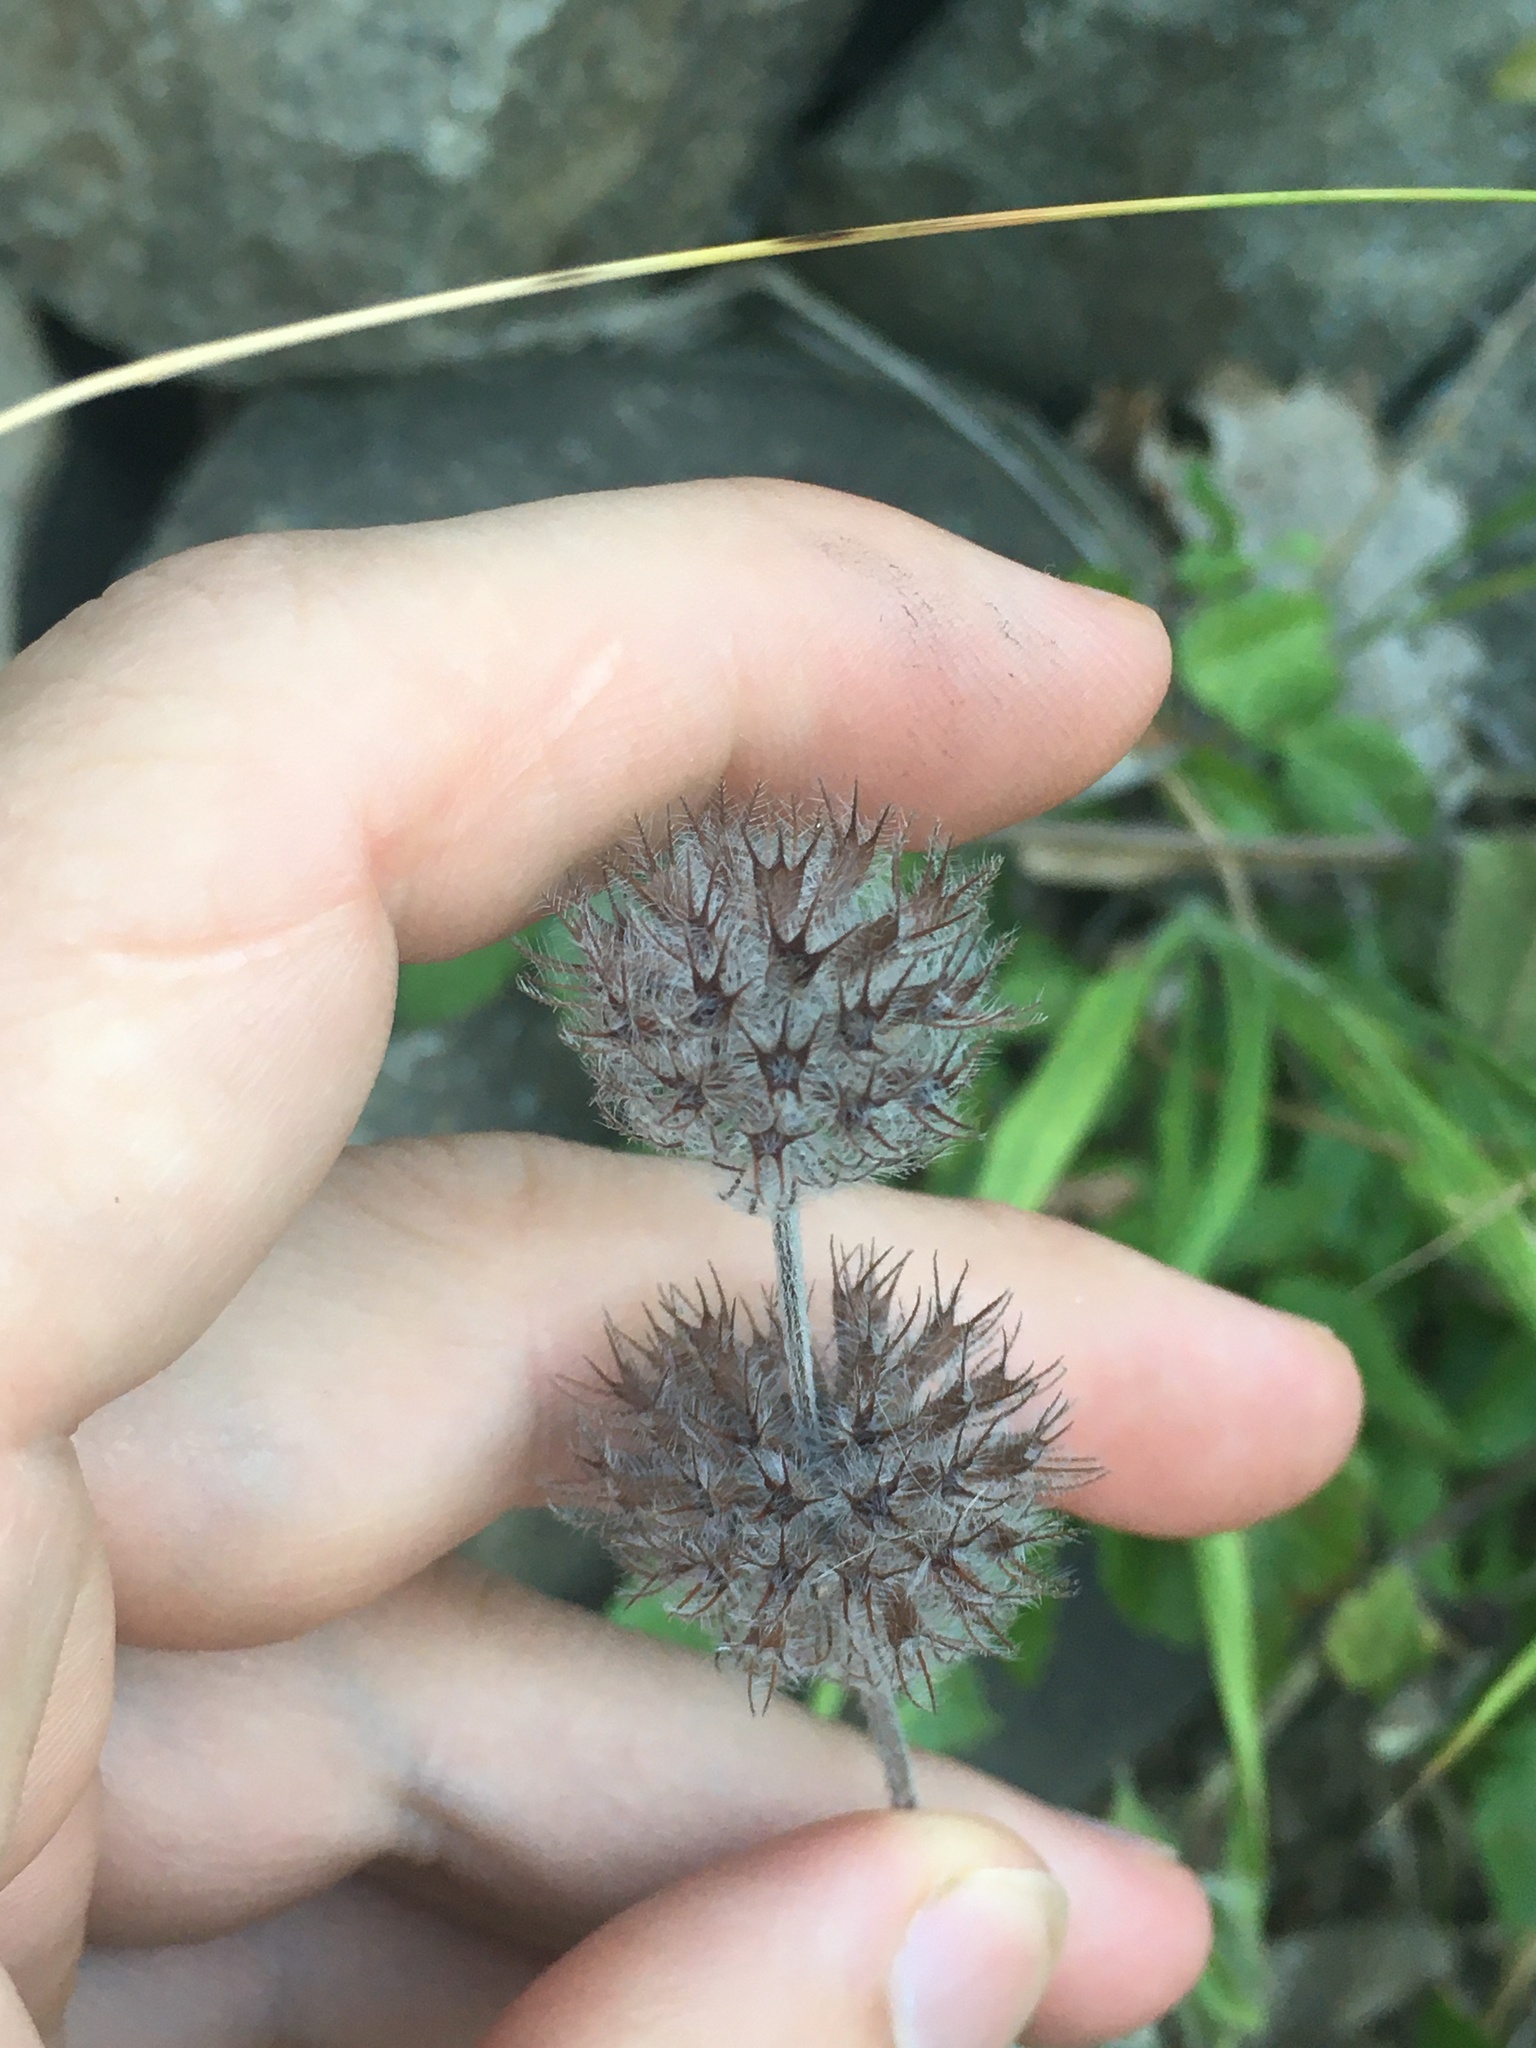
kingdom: Plantae
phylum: Tracheophyta
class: Magnoliopsida
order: Lamiales
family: Lamiaceae
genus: Clinopodium
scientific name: Clinopodium vulgare
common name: Wild basil
